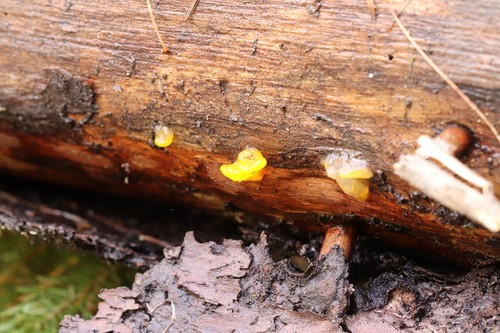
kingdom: Fungi
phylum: Basidiomycota
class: Dacrymycetes
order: Dacrymycetales
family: Dacrymycetaceae
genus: Dacrymyces
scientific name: Dacrymyces chrysospermus
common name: Orange jelly spot
